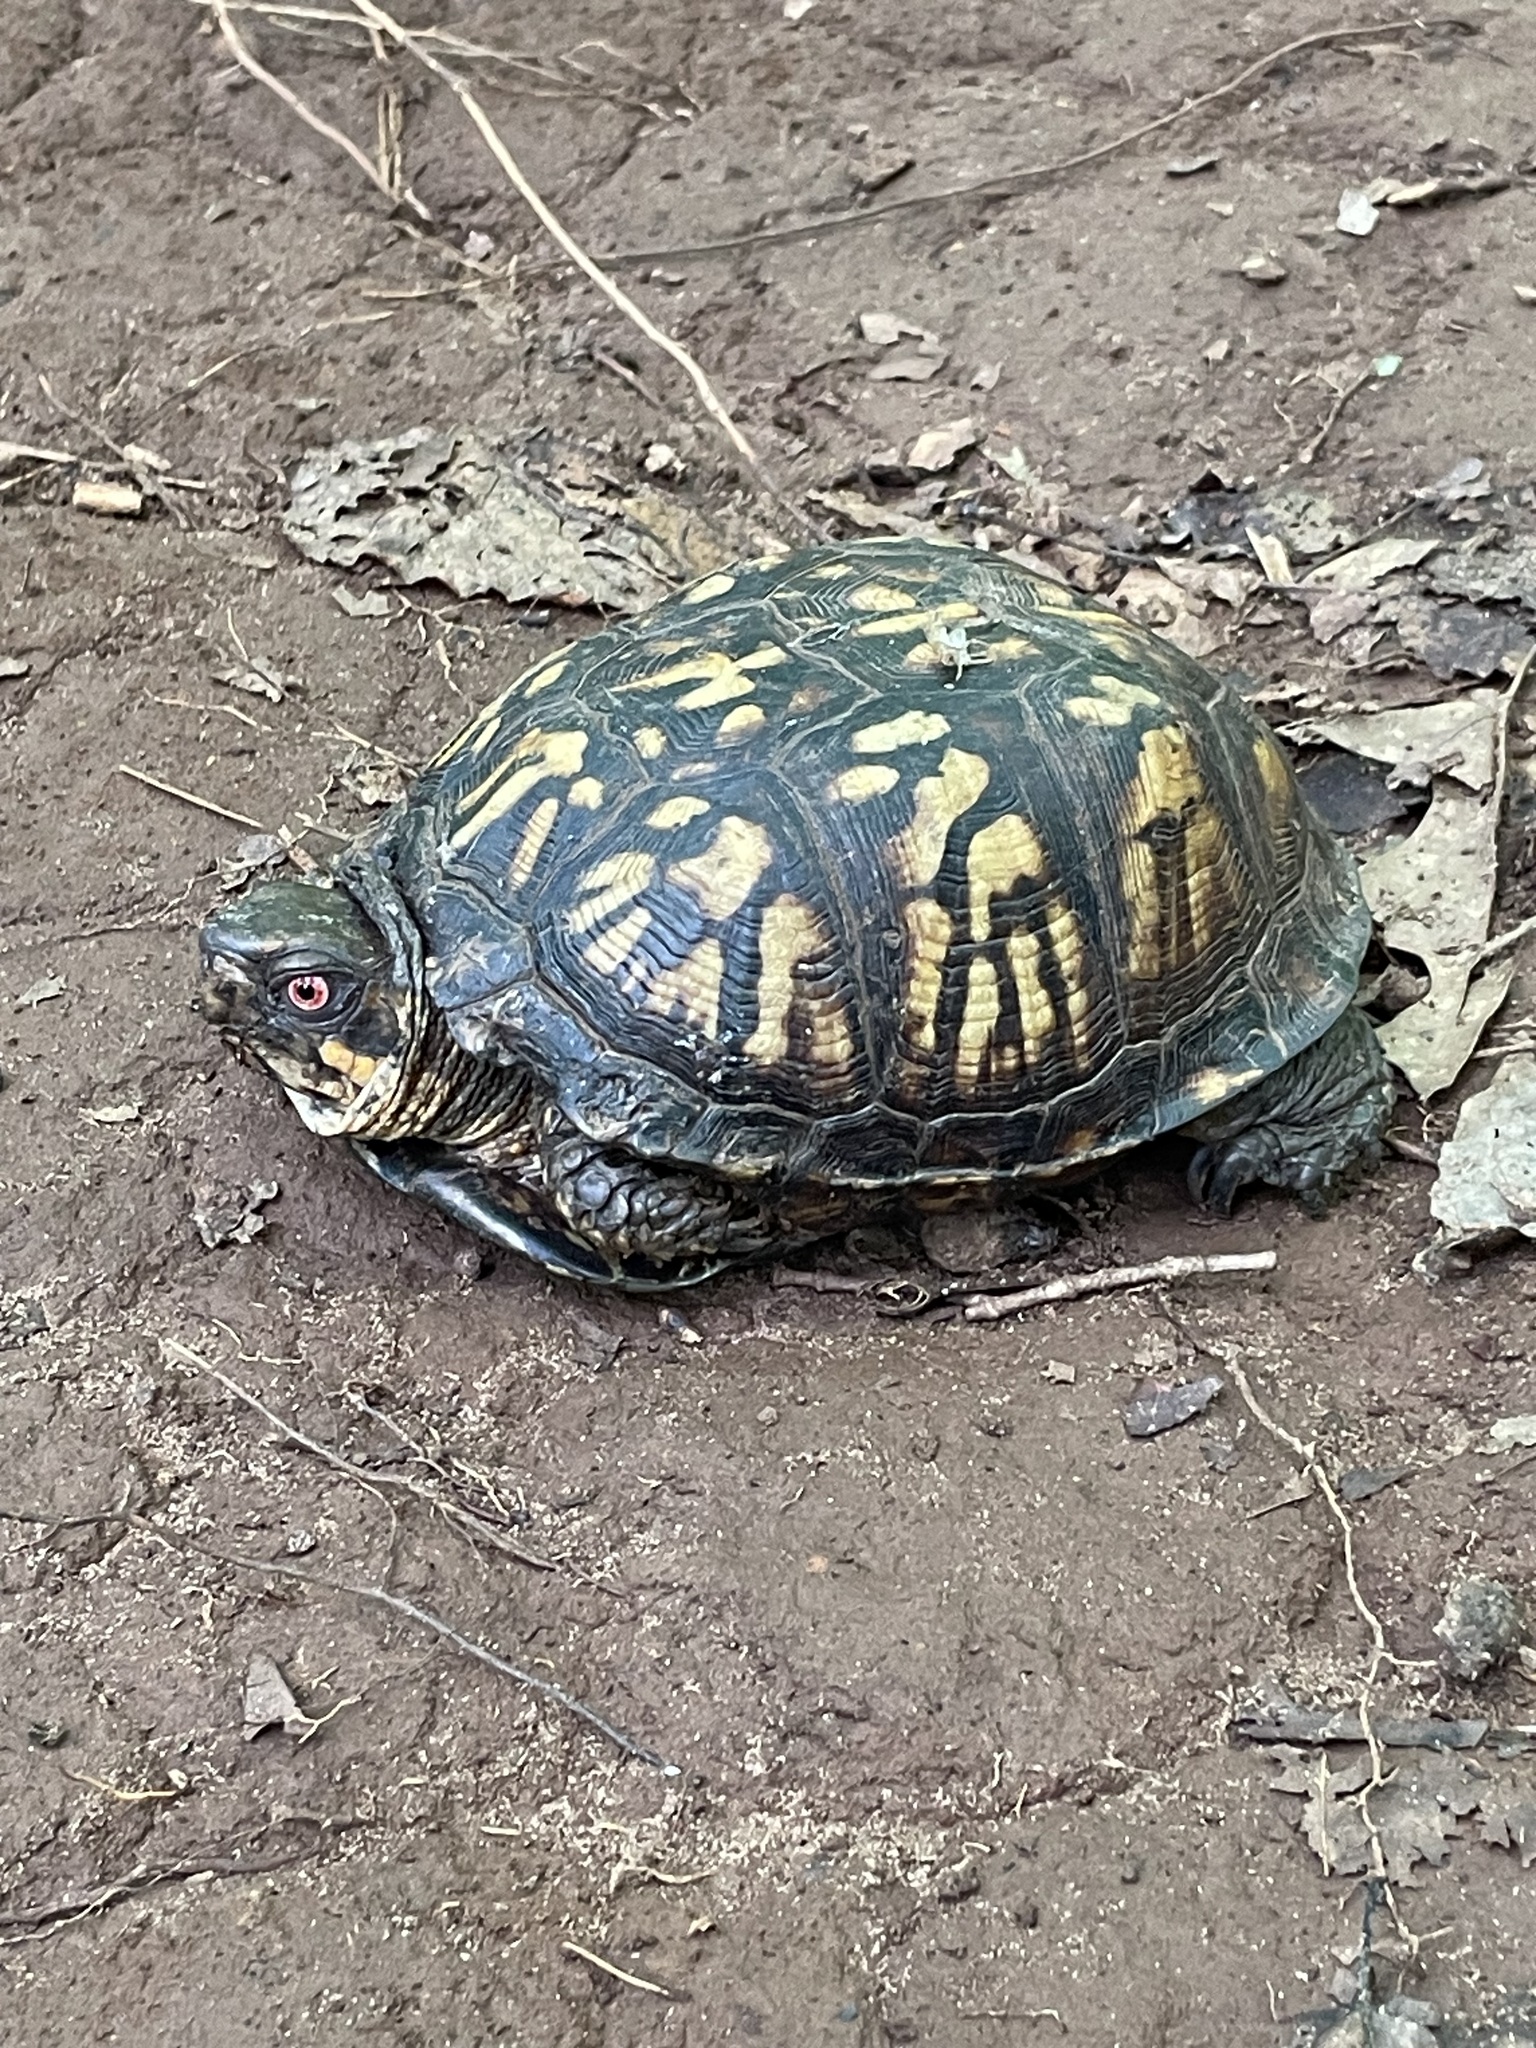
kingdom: Animalia
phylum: Chordata
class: Testudines
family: Emydidae
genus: Terrapene
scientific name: Terrapene carolina
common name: Common box turtle
